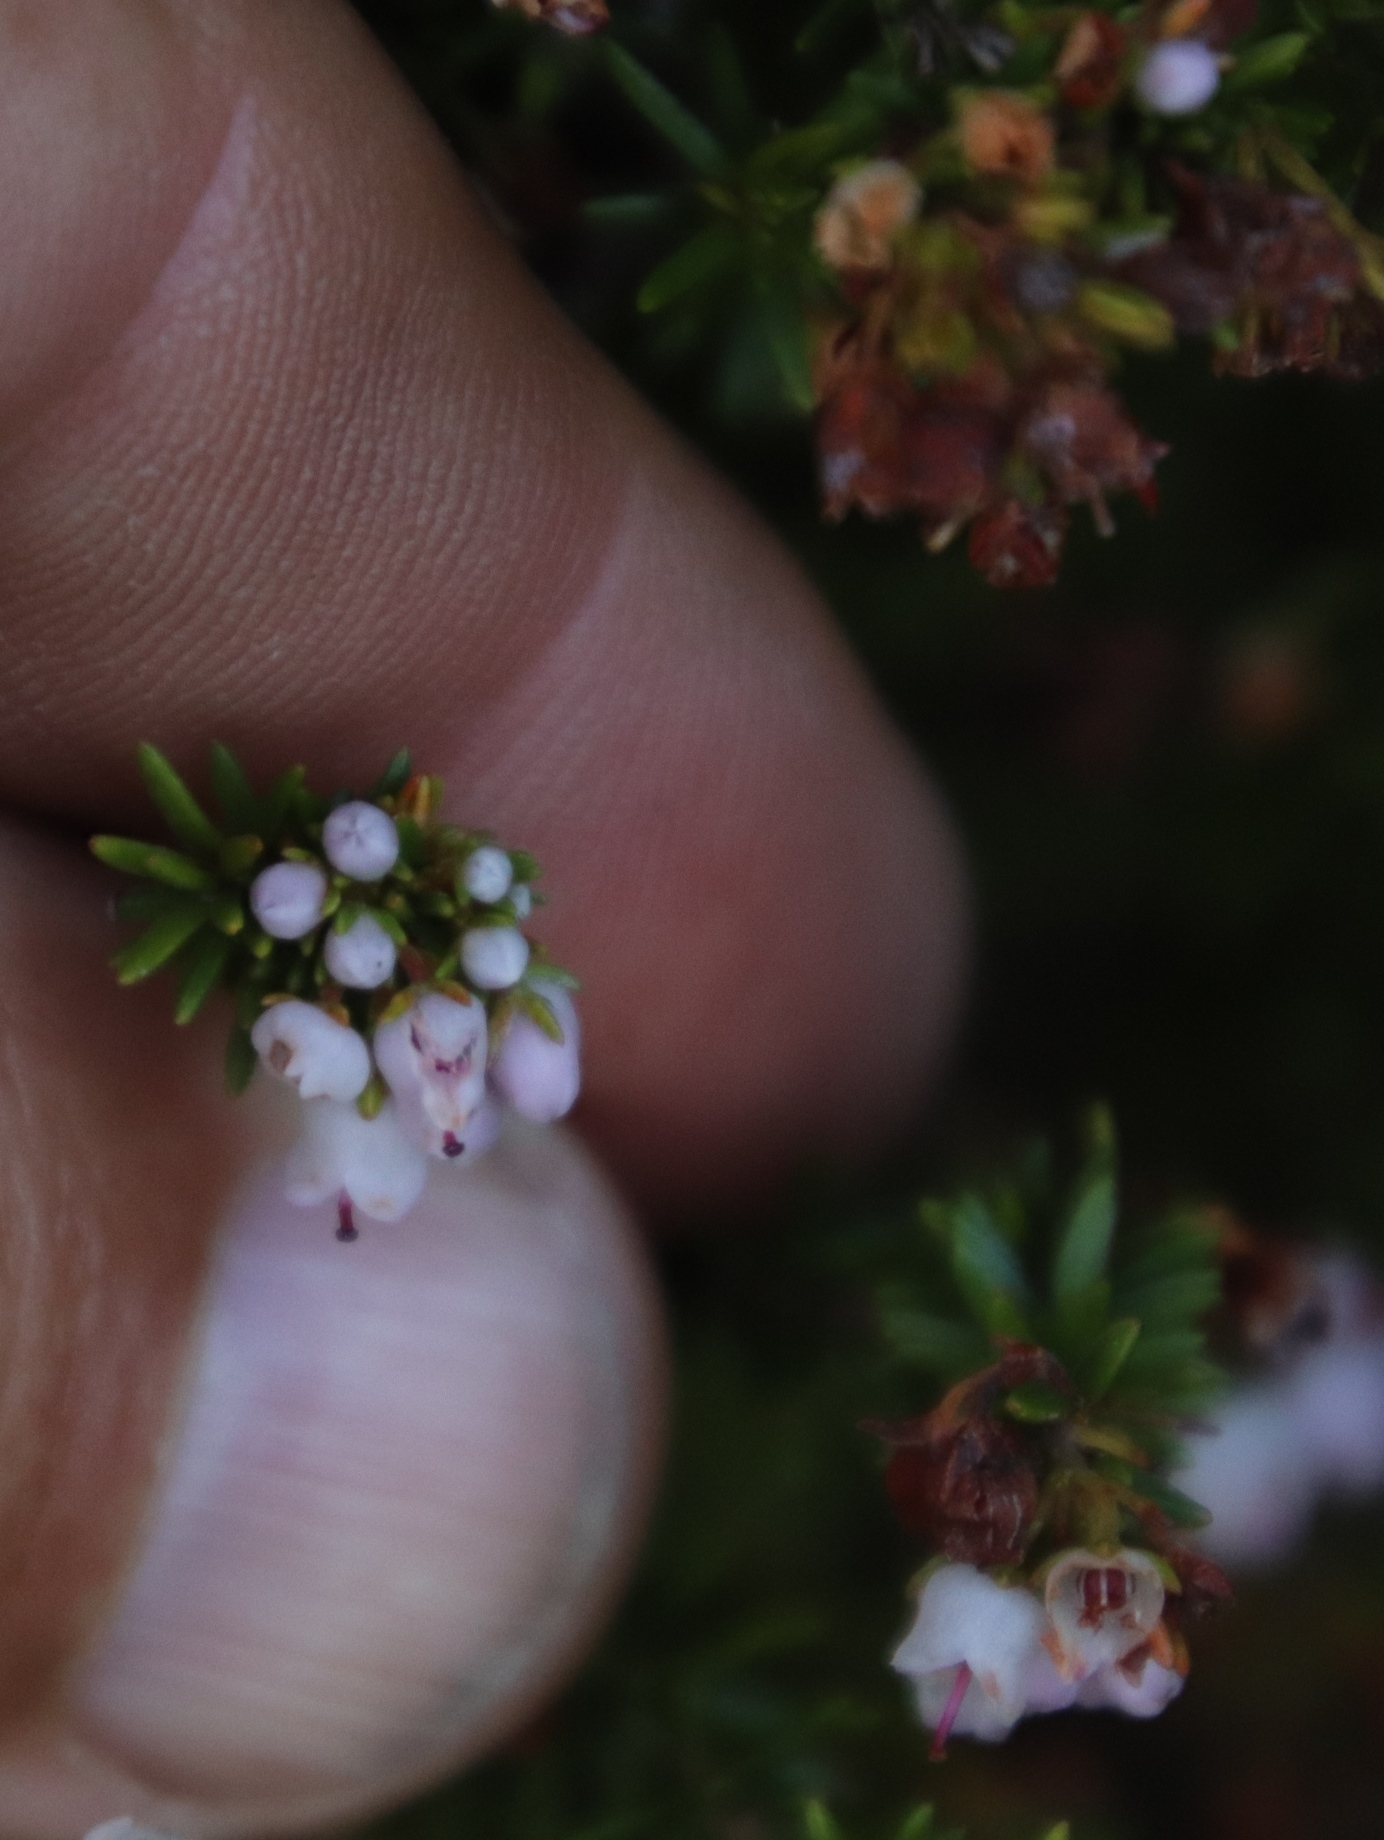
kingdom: Plantae
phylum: Tracheophyta
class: Magnoliopsida
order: Ericales
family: Ericaceae
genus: Erica
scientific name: Erica curvirostris
